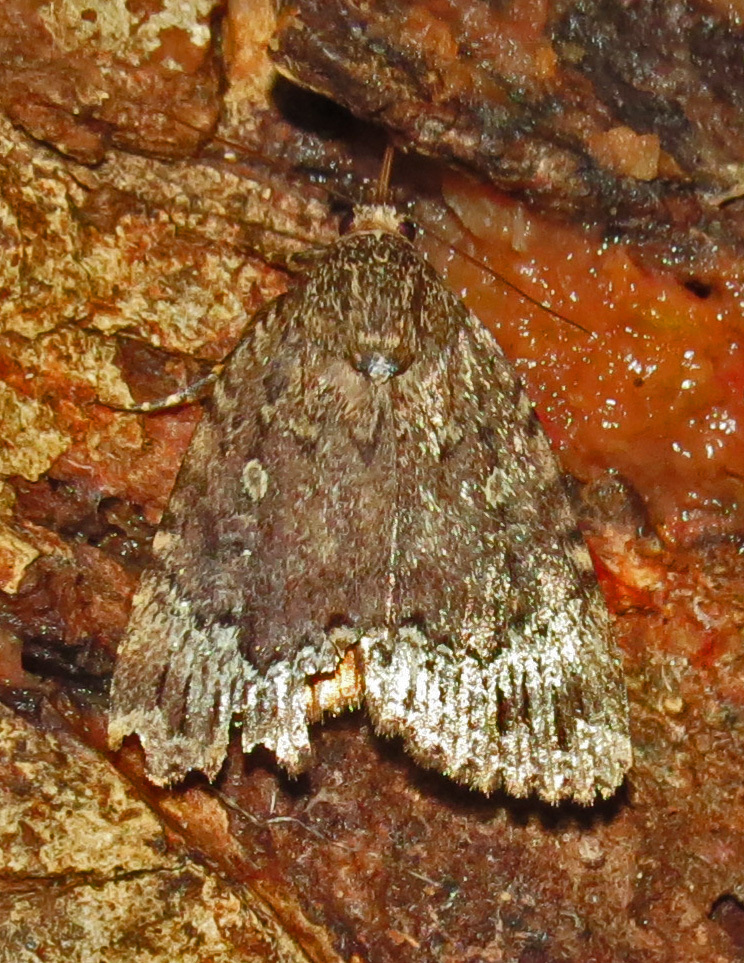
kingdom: Animalia
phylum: Arthropoda
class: Insecta
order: Lepidoptera
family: Noctuidae
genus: Amphipyra
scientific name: Amphipyra pyramidoides
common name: American copper underwing
